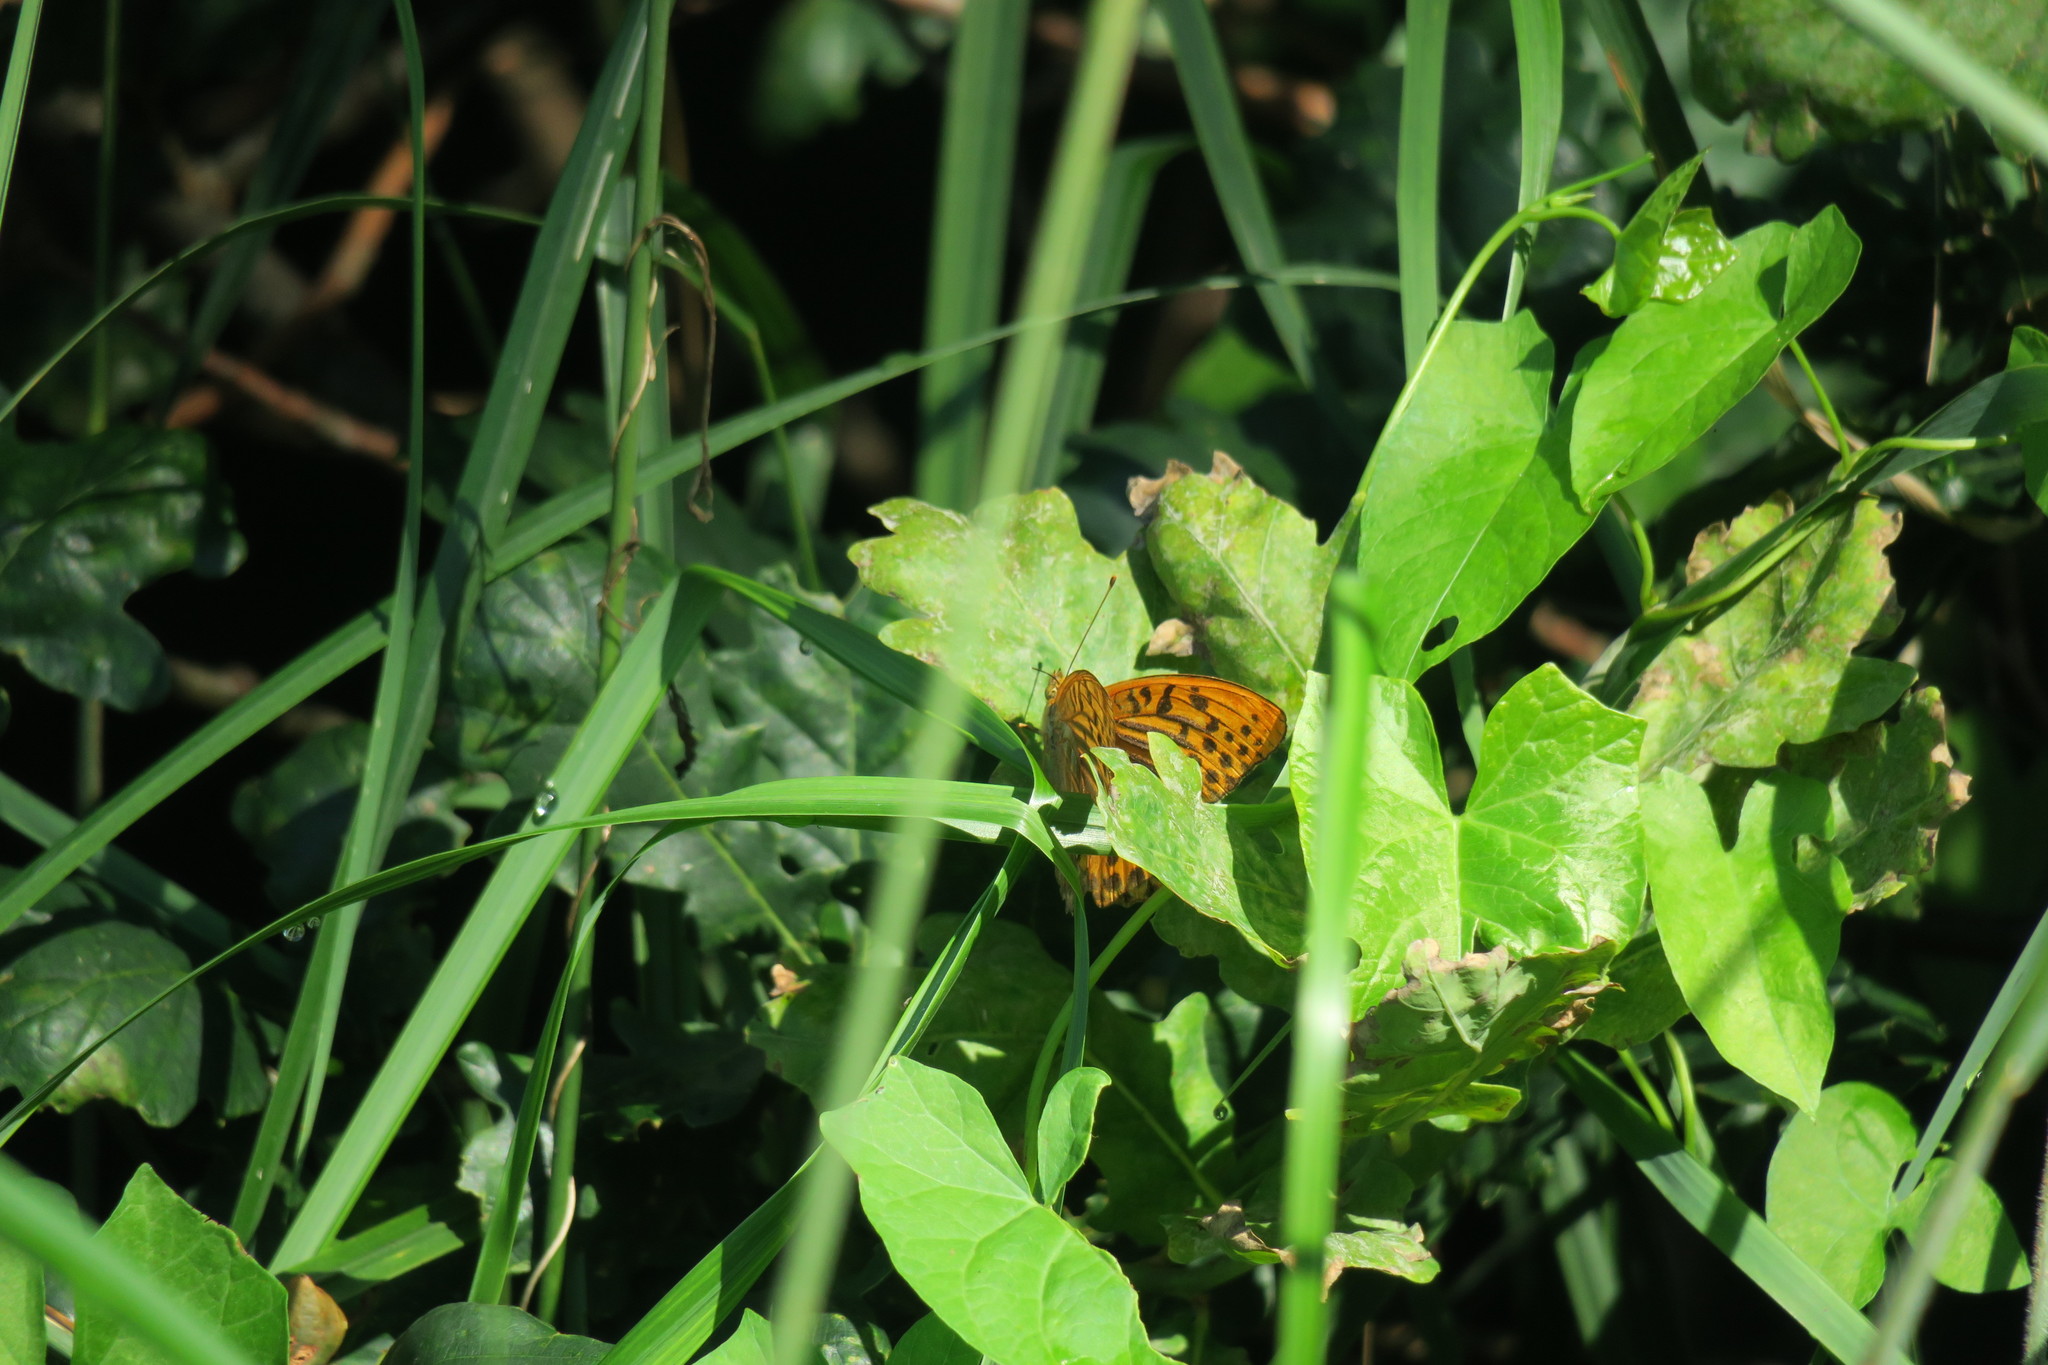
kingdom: Animalia
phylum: Arthropoda
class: Insecta
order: Lepidoptera
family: Nymphalidae
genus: Argynnis
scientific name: Argynnis paphia
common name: Silver-washed fritillary
